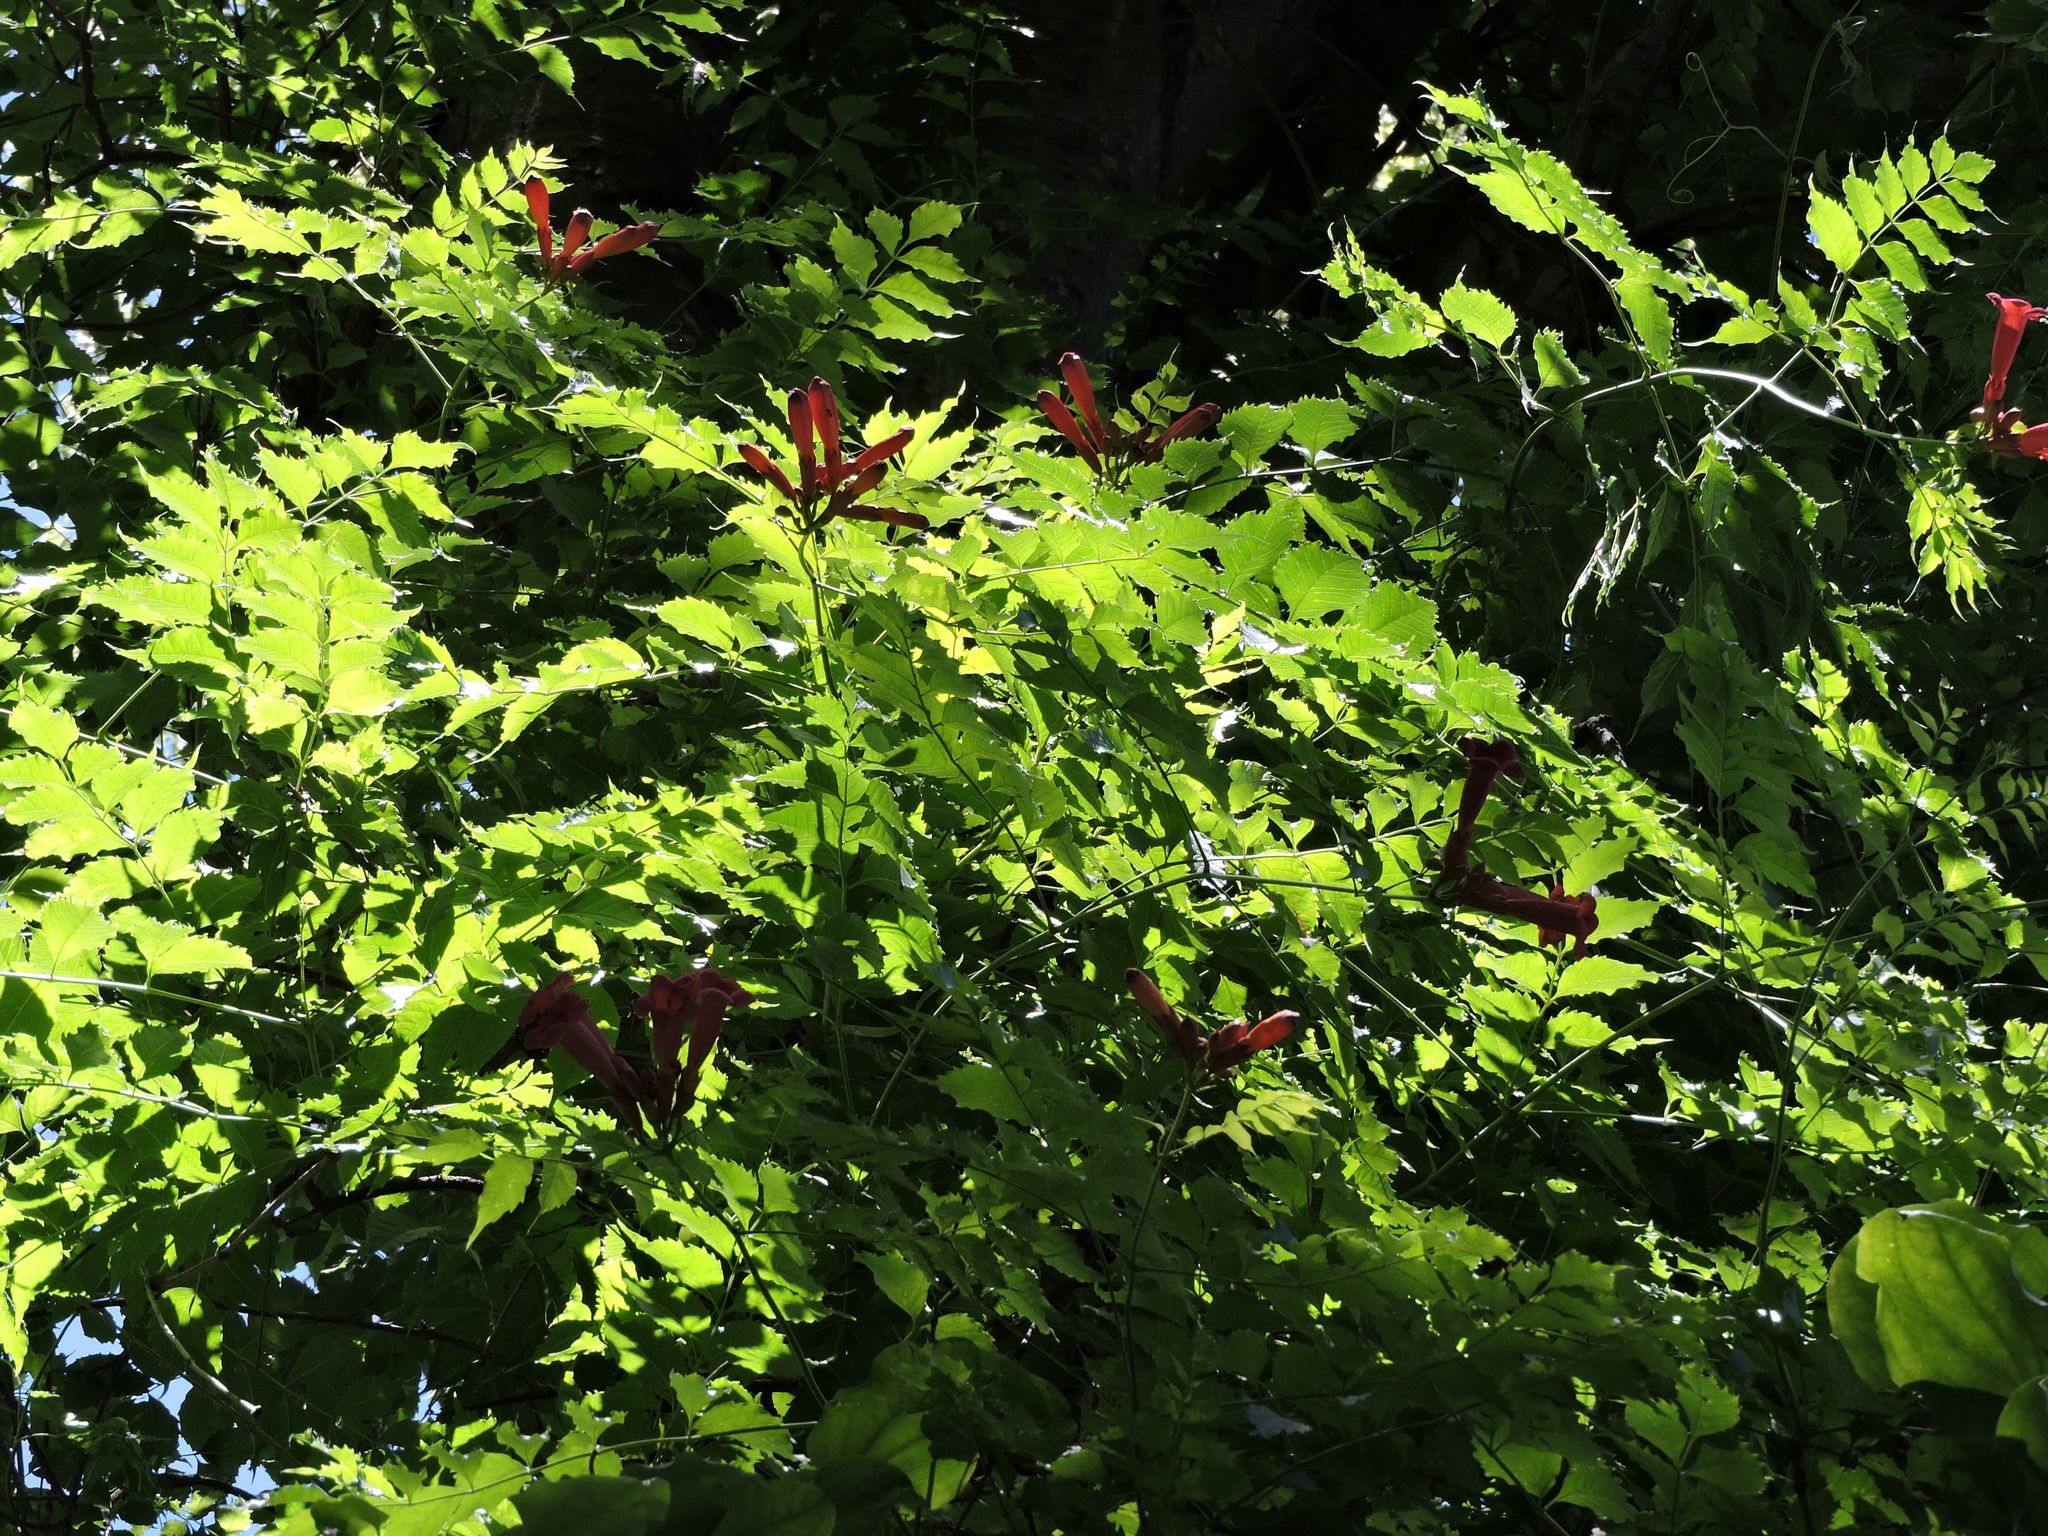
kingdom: Plantae
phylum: Tracheophyta
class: Magnoliopsida
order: Lamiales
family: Bignoniaceae
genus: Campsis
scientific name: Campsis radicans
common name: Trumpet-creeper
